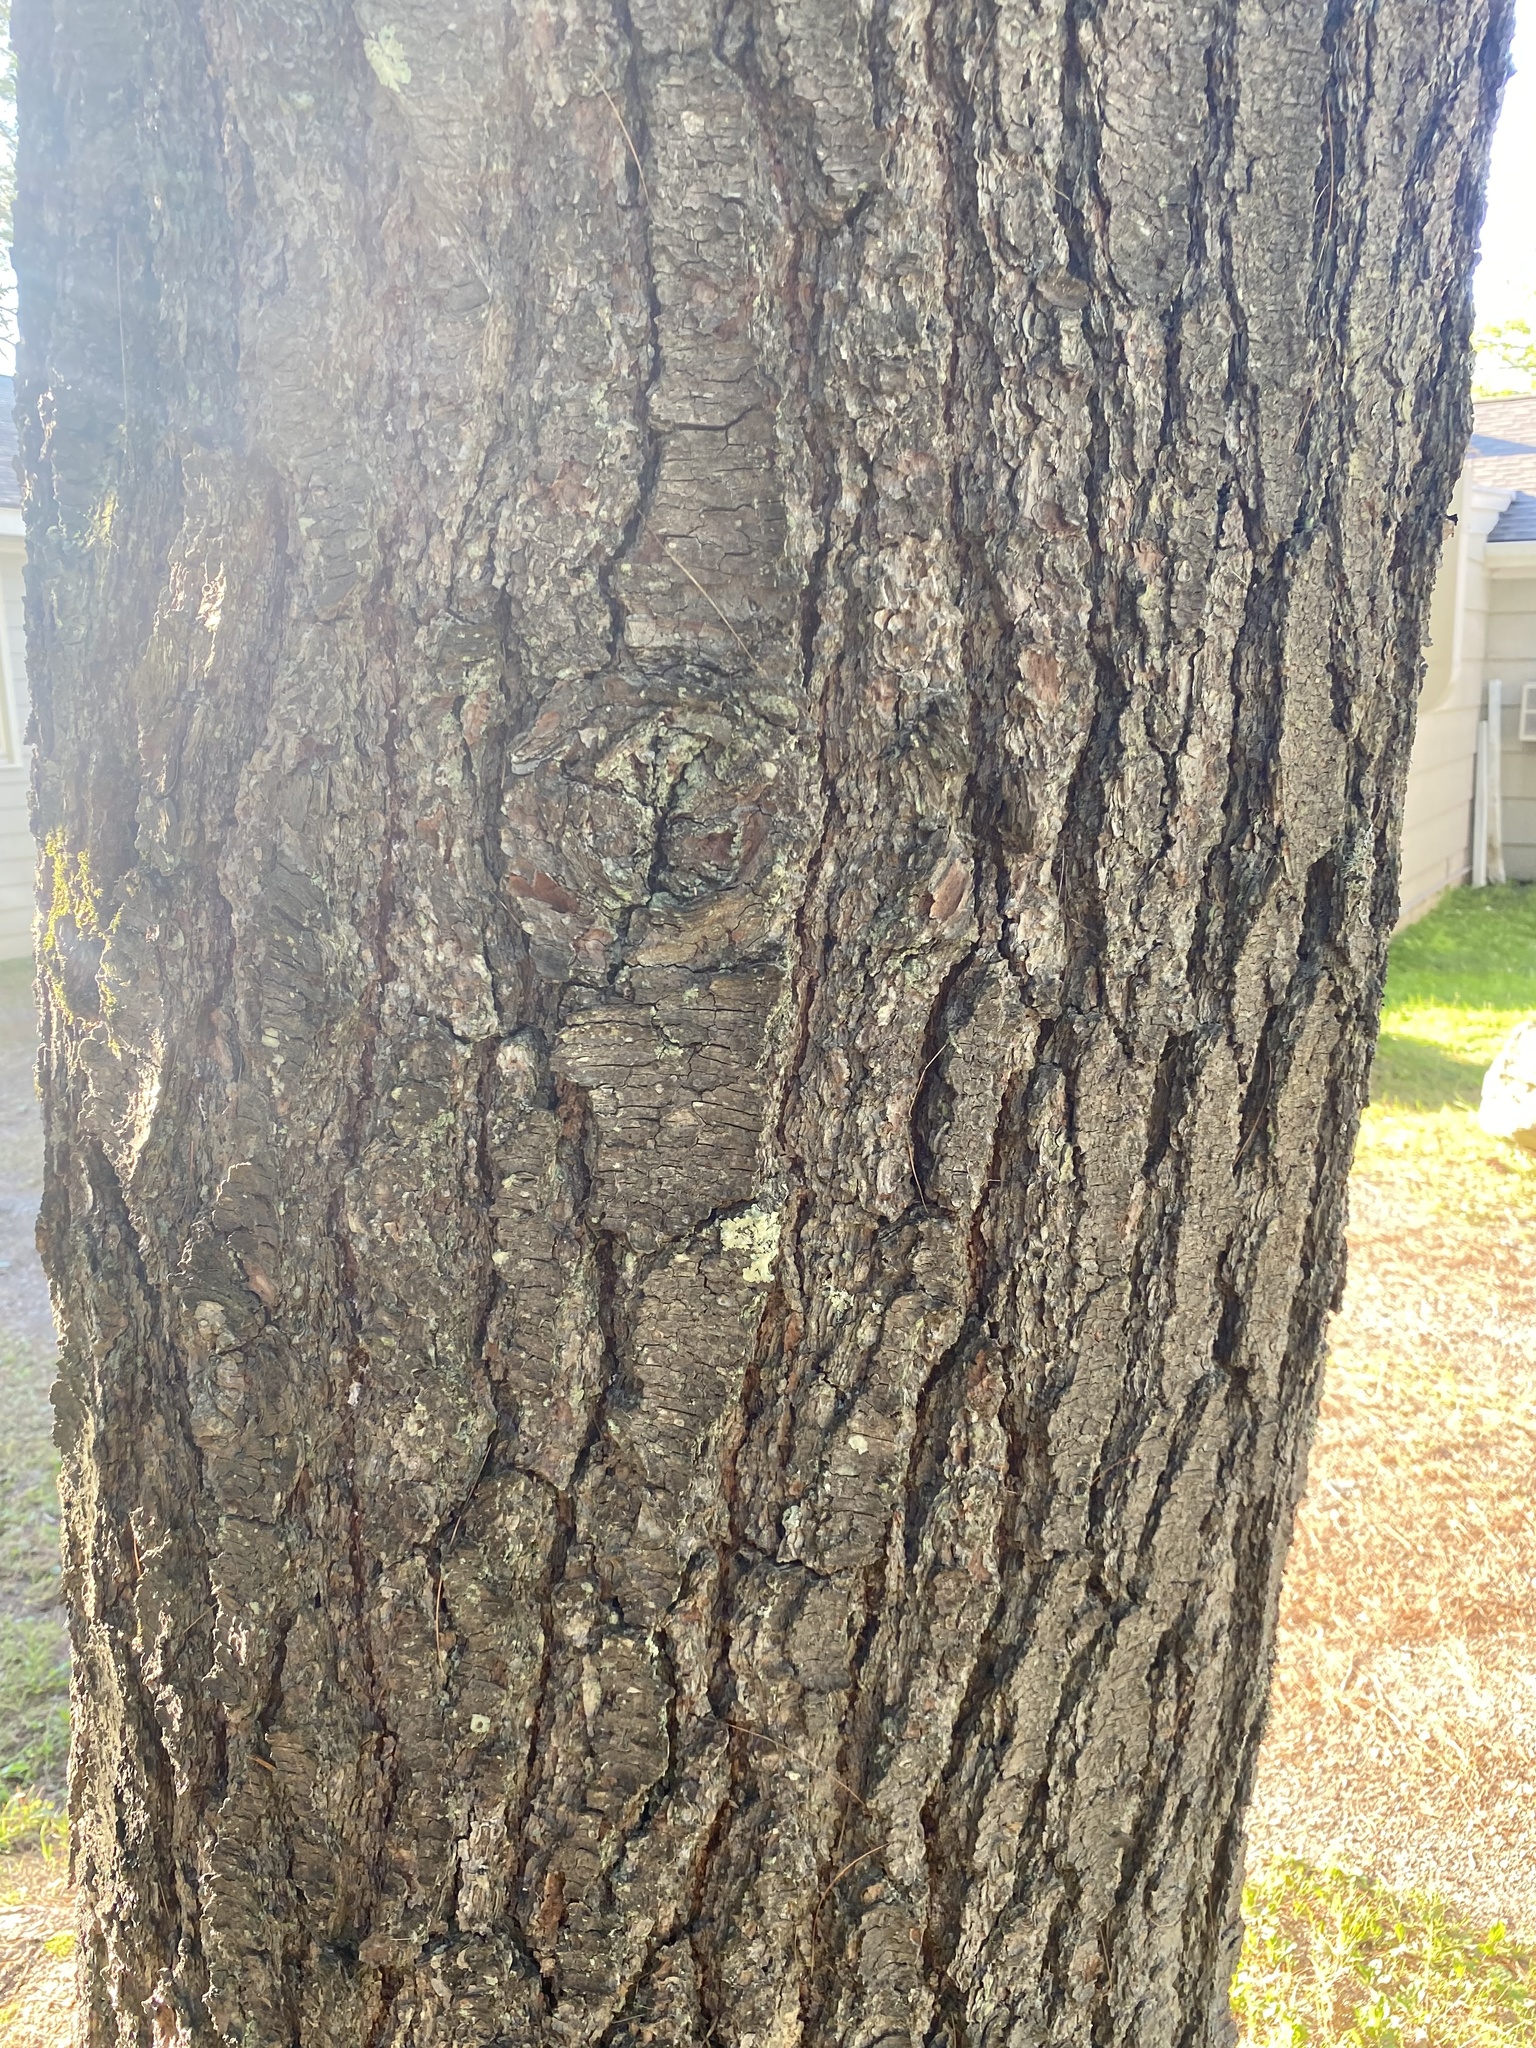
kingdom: Plantae
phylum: Tracheophyta
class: Pinopsida
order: Pinales
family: Pinaceae
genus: Pinus
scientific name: Pinus strobus
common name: Weymouth pine
